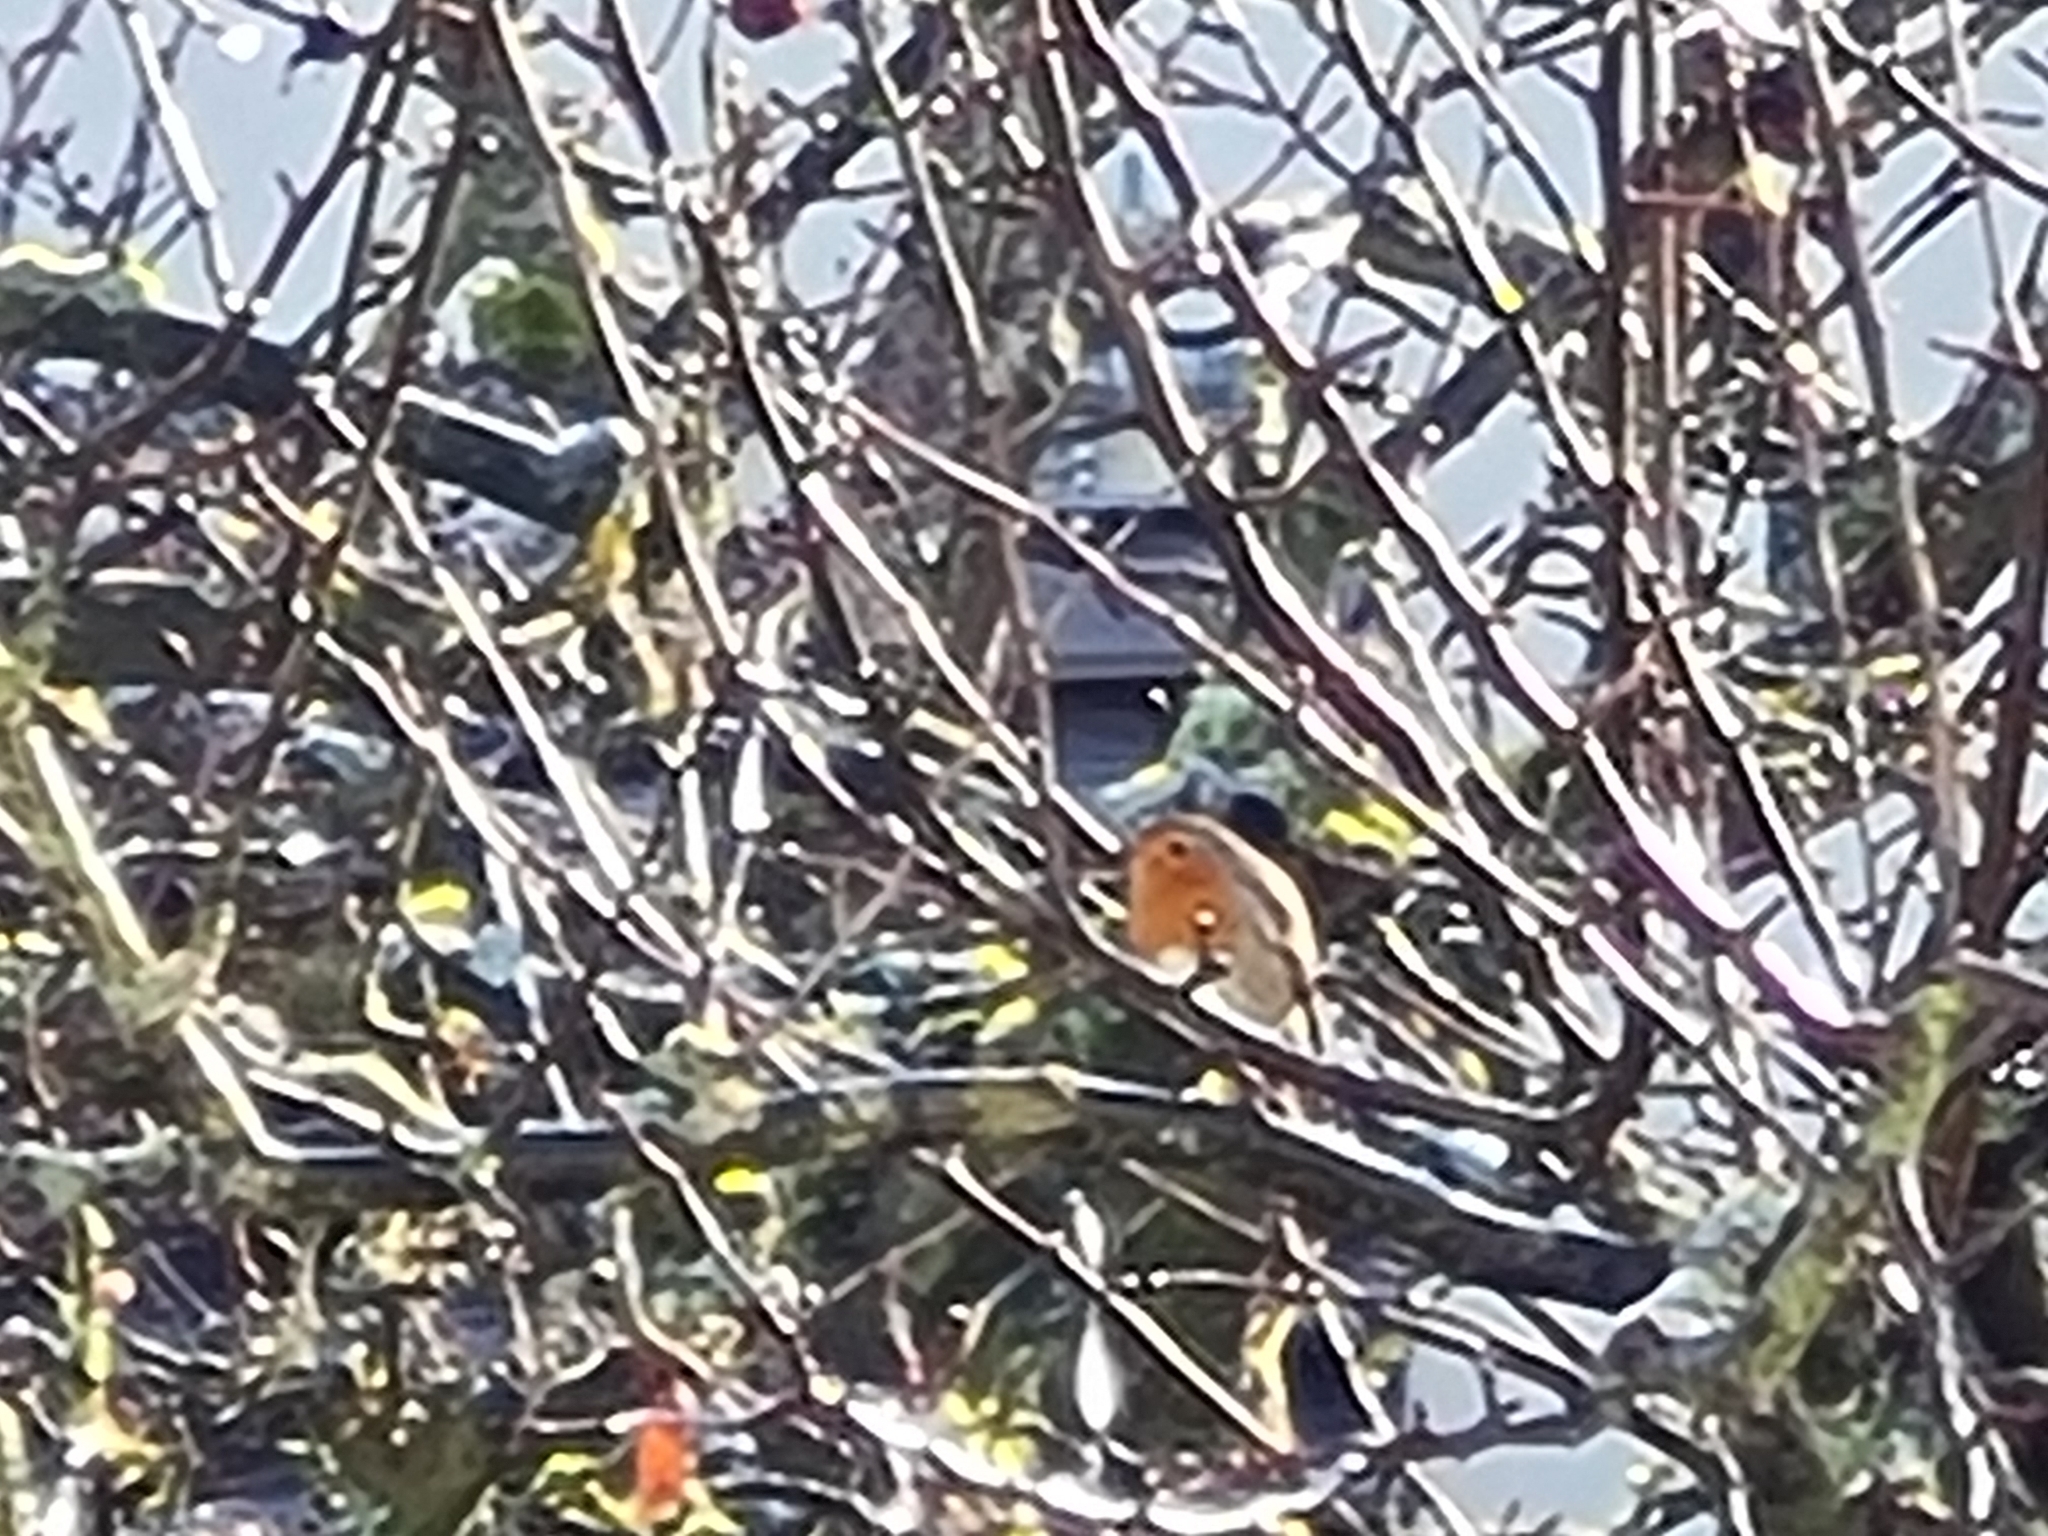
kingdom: Animalia
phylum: Chordata
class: Aves
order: Passeriformes
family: Muscicapidae
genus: Erithacus
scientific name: Erithacus rubecula
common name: European robin
